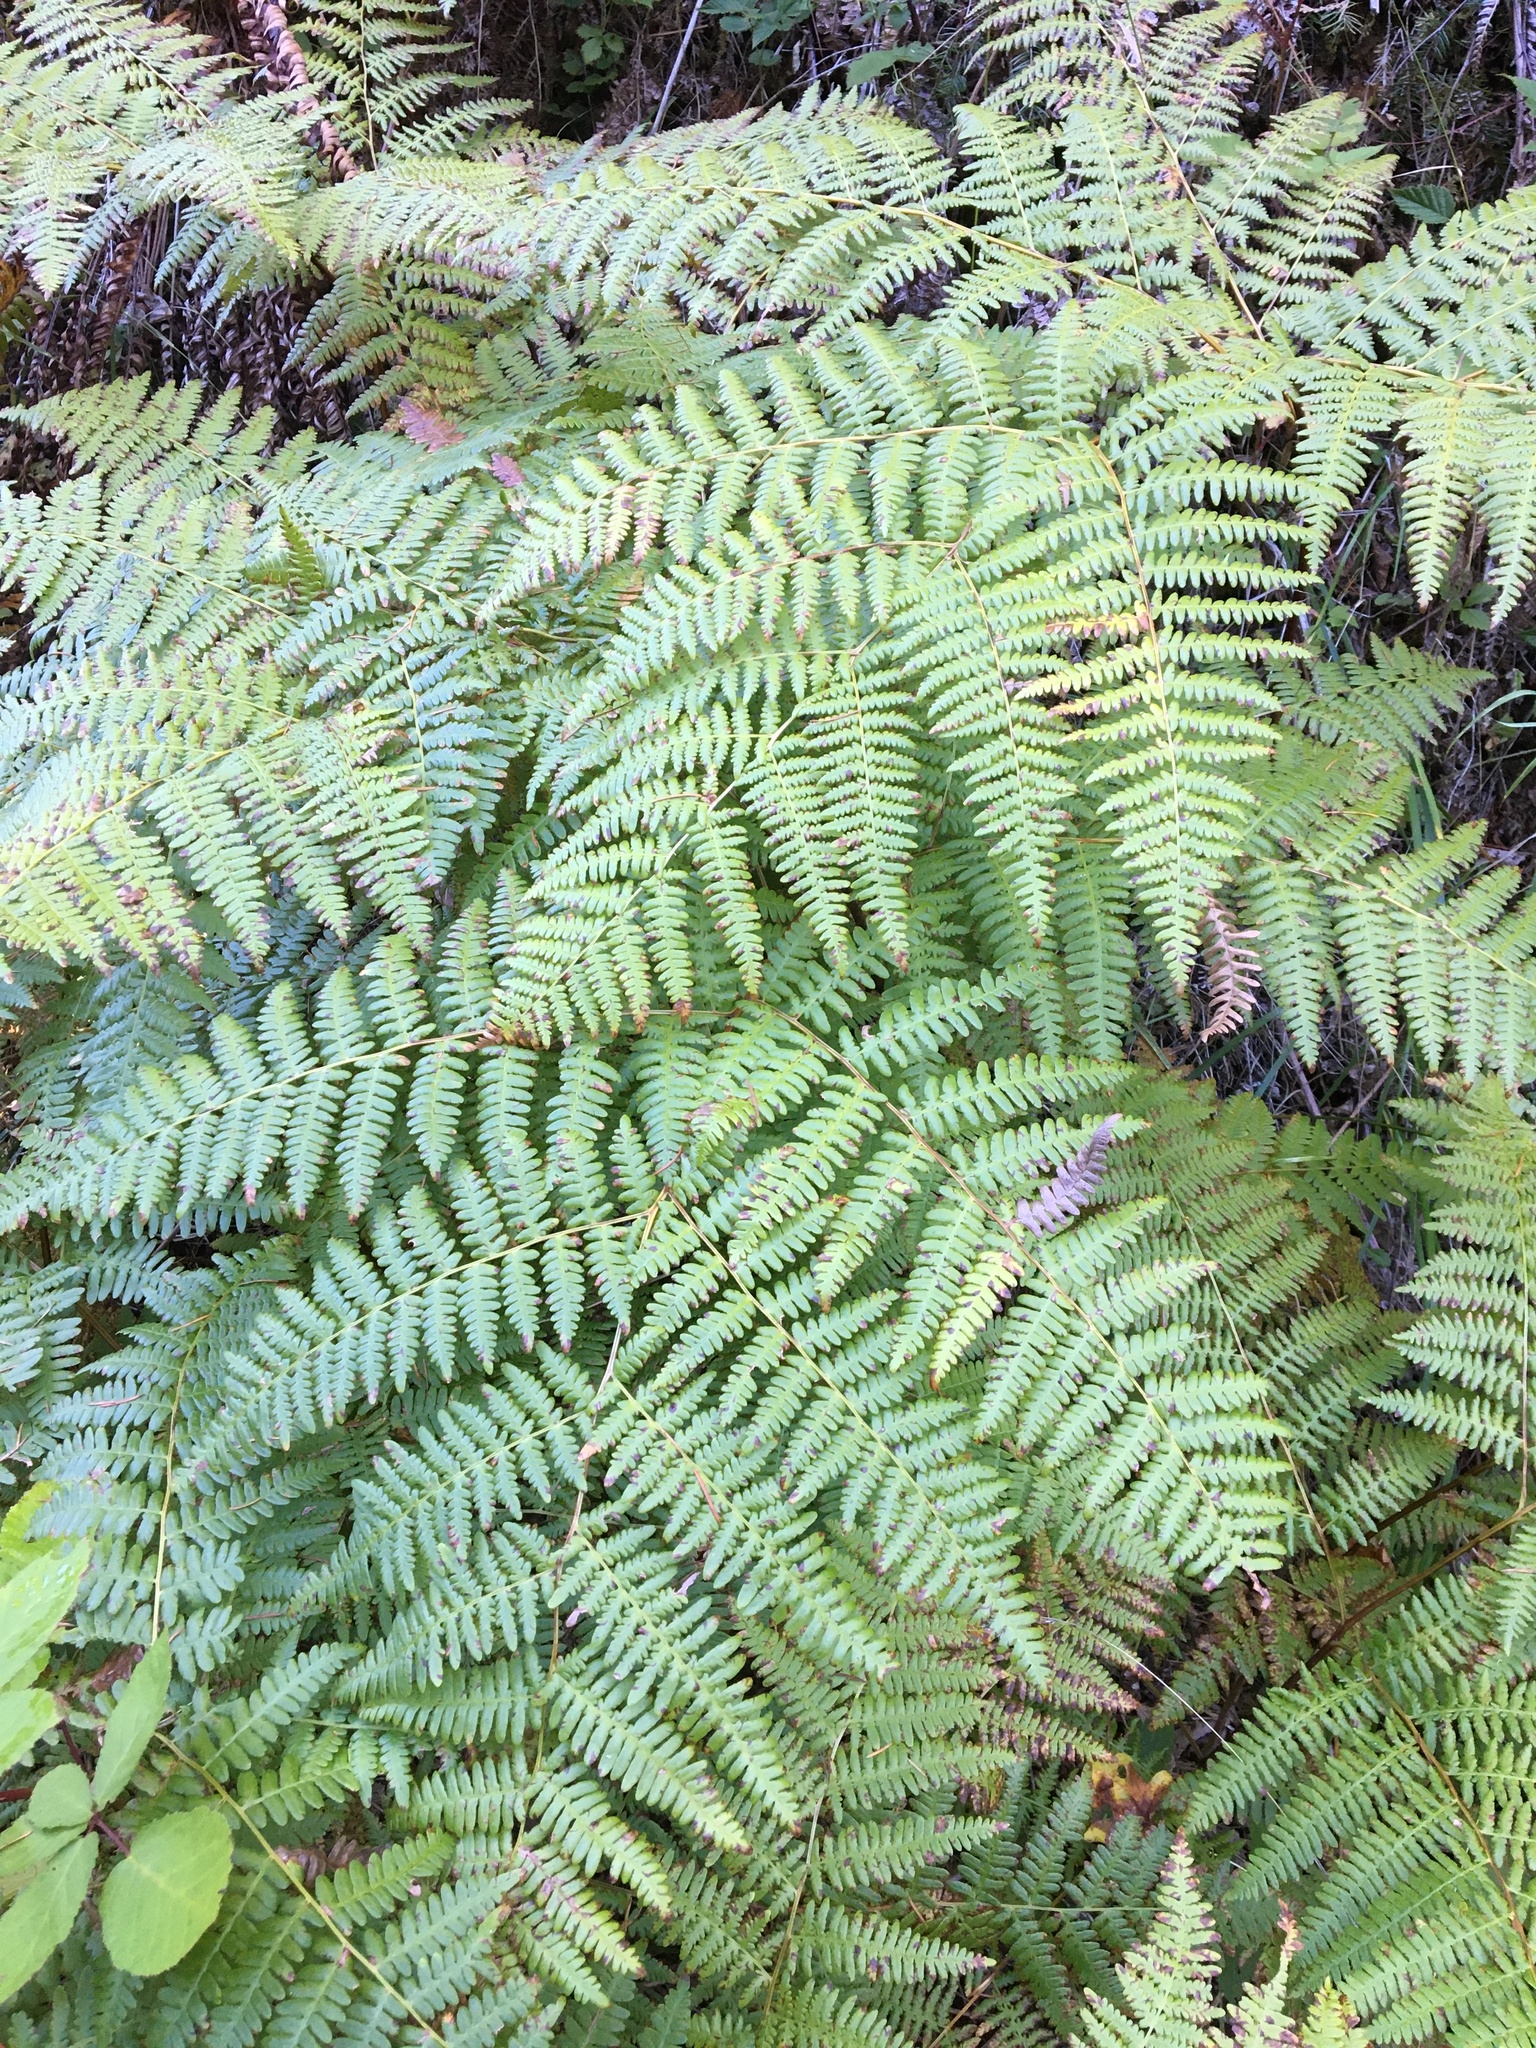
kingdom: Plantae
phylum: Tracheophyta
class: Polypodiopsida
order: Polypodiales
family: Dennstaedtiaceae
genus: Pteridium
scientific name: Pteridium aquilinum
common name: Bracken
